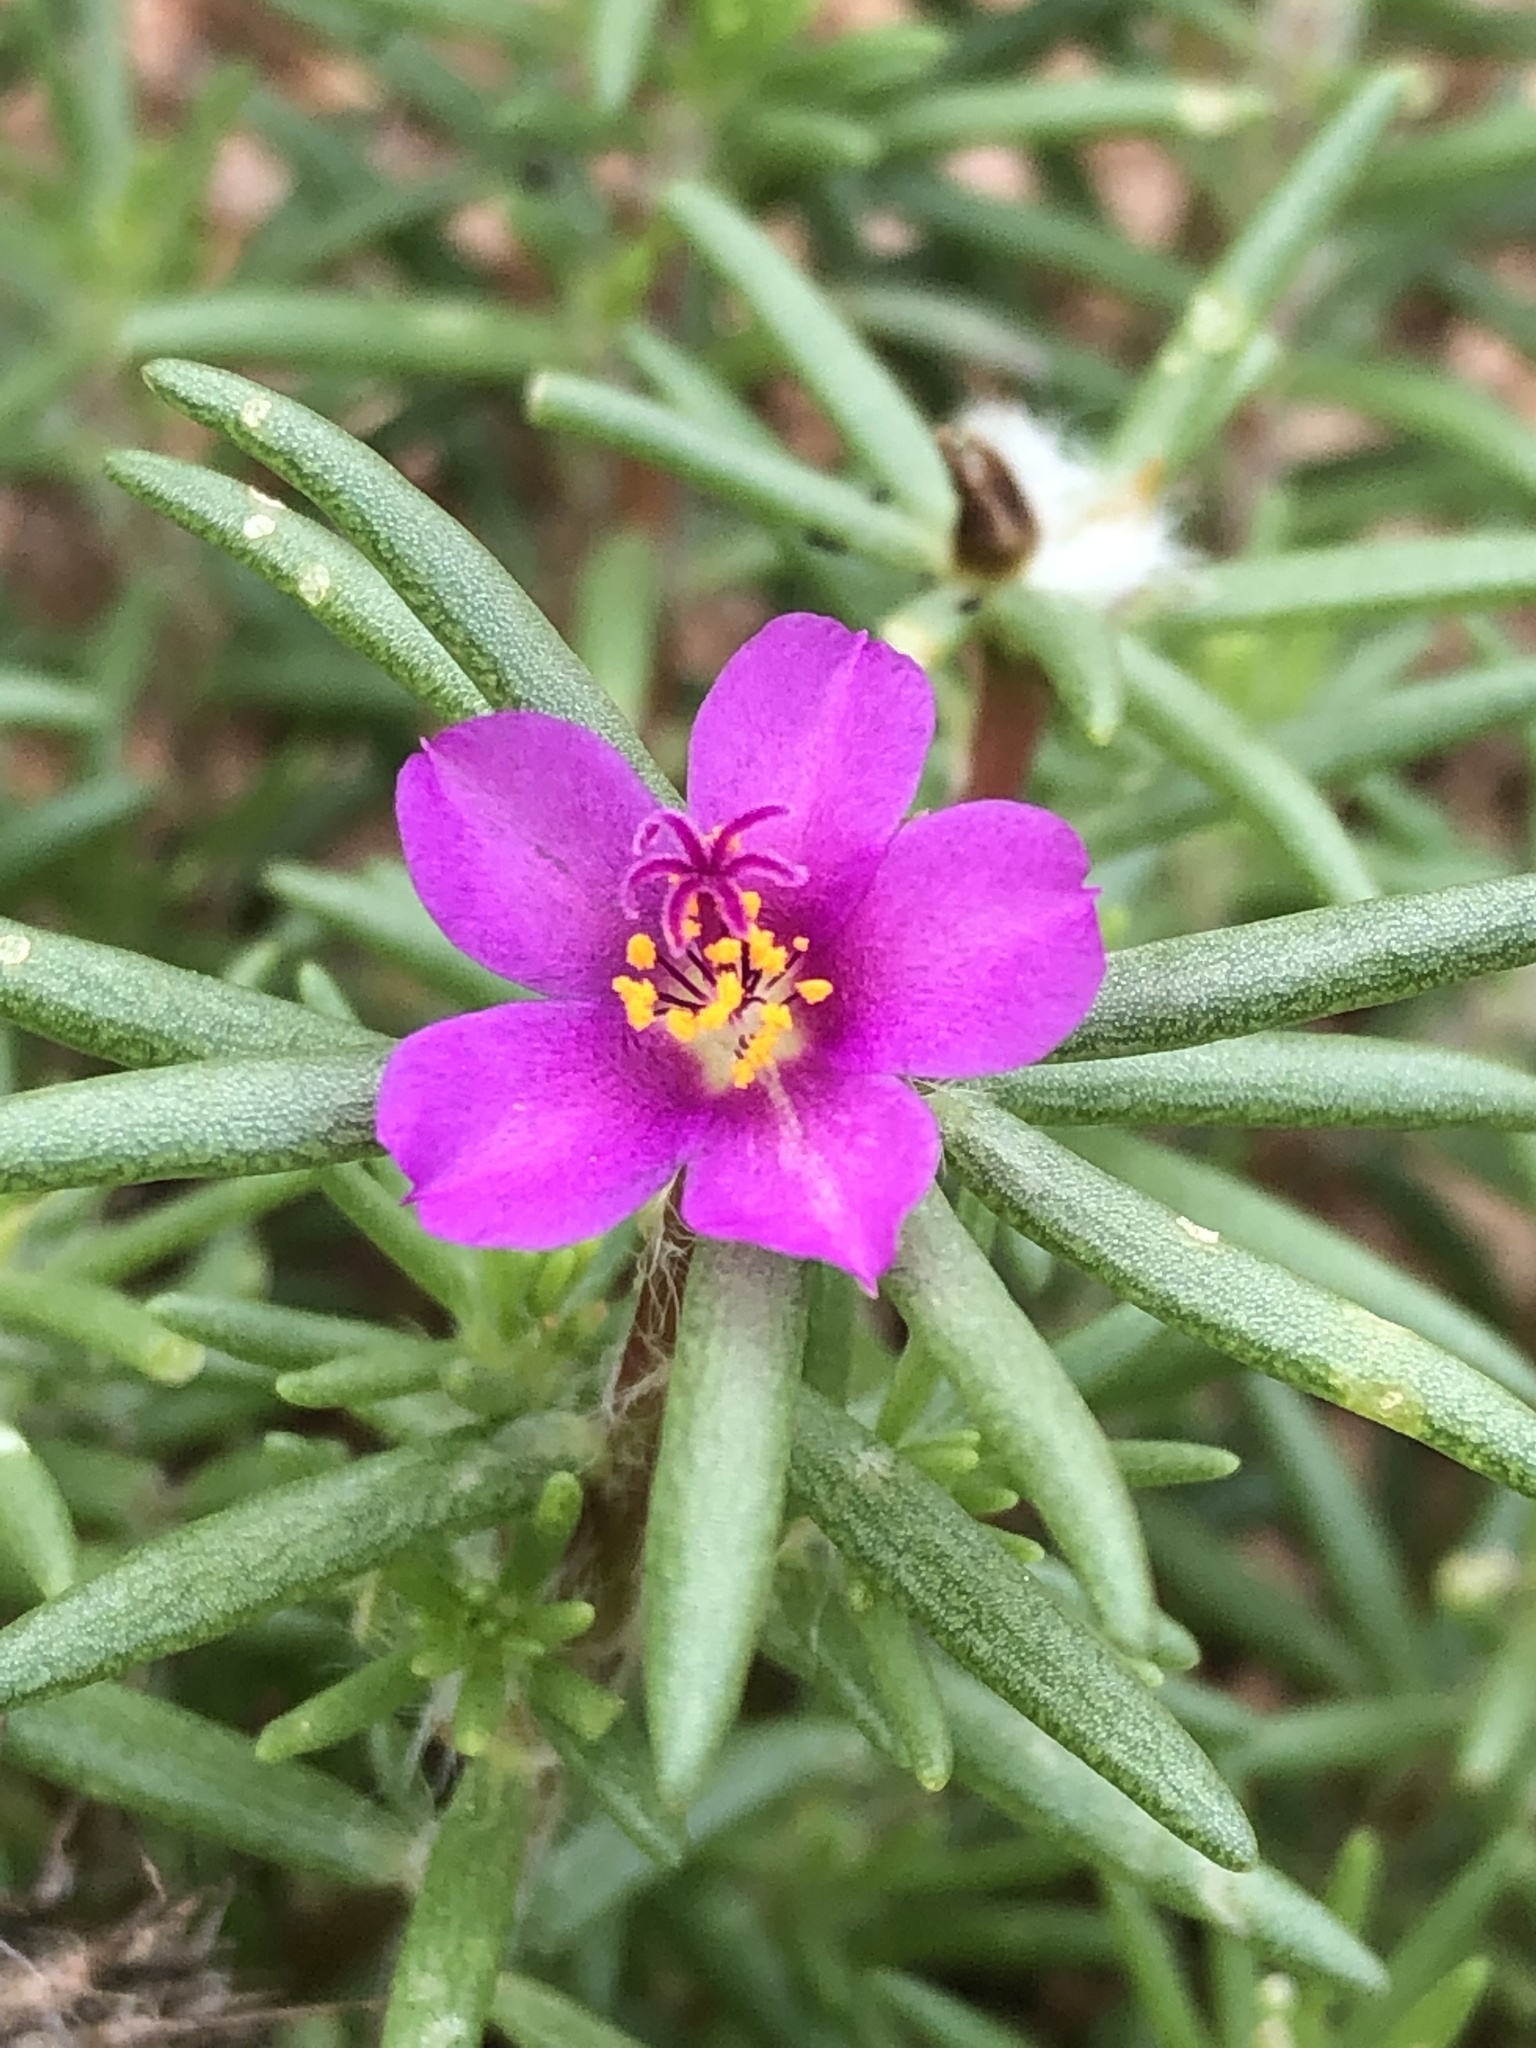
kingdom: Plantae
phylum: Tracheophyta
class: Magnoliopsida
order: Caryophyllales
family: Portulacaceae
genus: Portulaca
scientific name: Portulaca pilosa
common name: Kiss me quick
